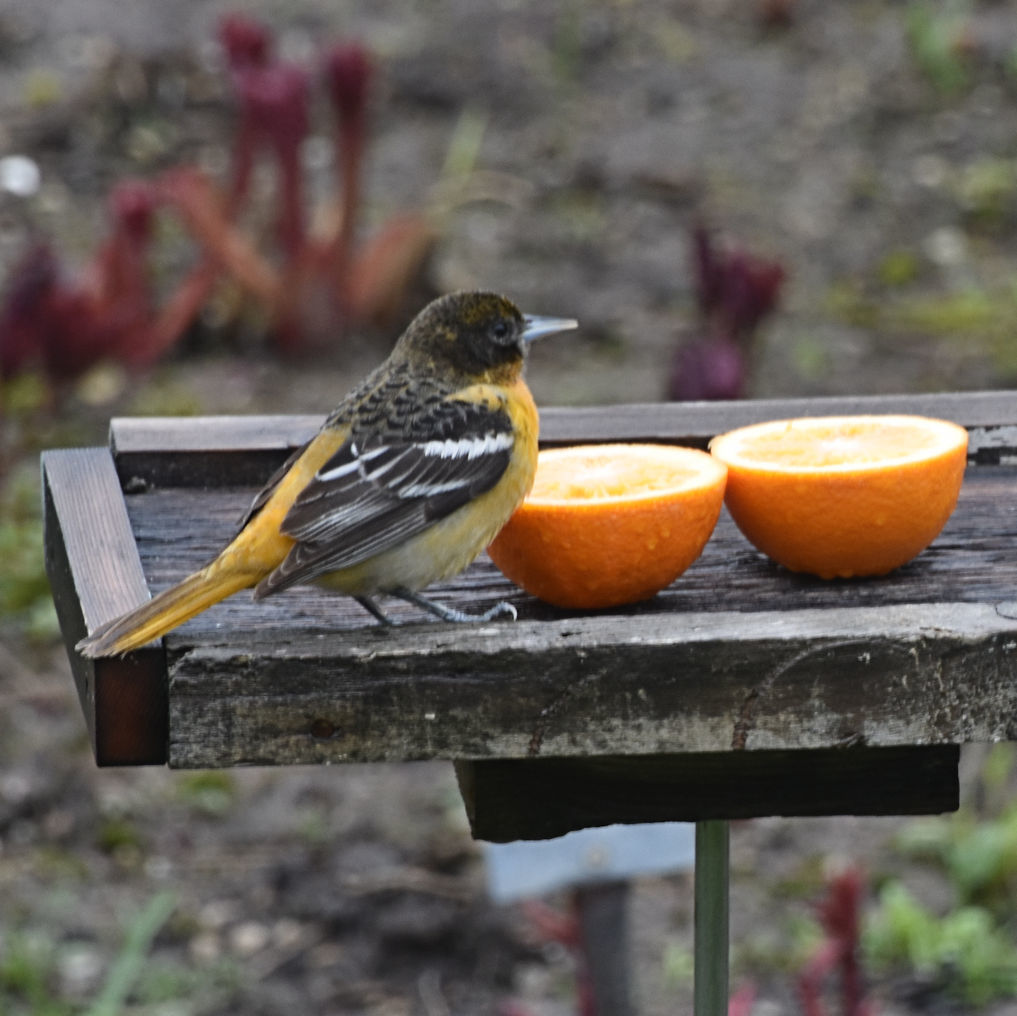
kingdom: Animalia
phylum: Chordata
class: Aves
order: Passeriformes
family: Icteridae
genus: Icterus
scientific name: Icterus galbula
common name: Baltimore oriole
